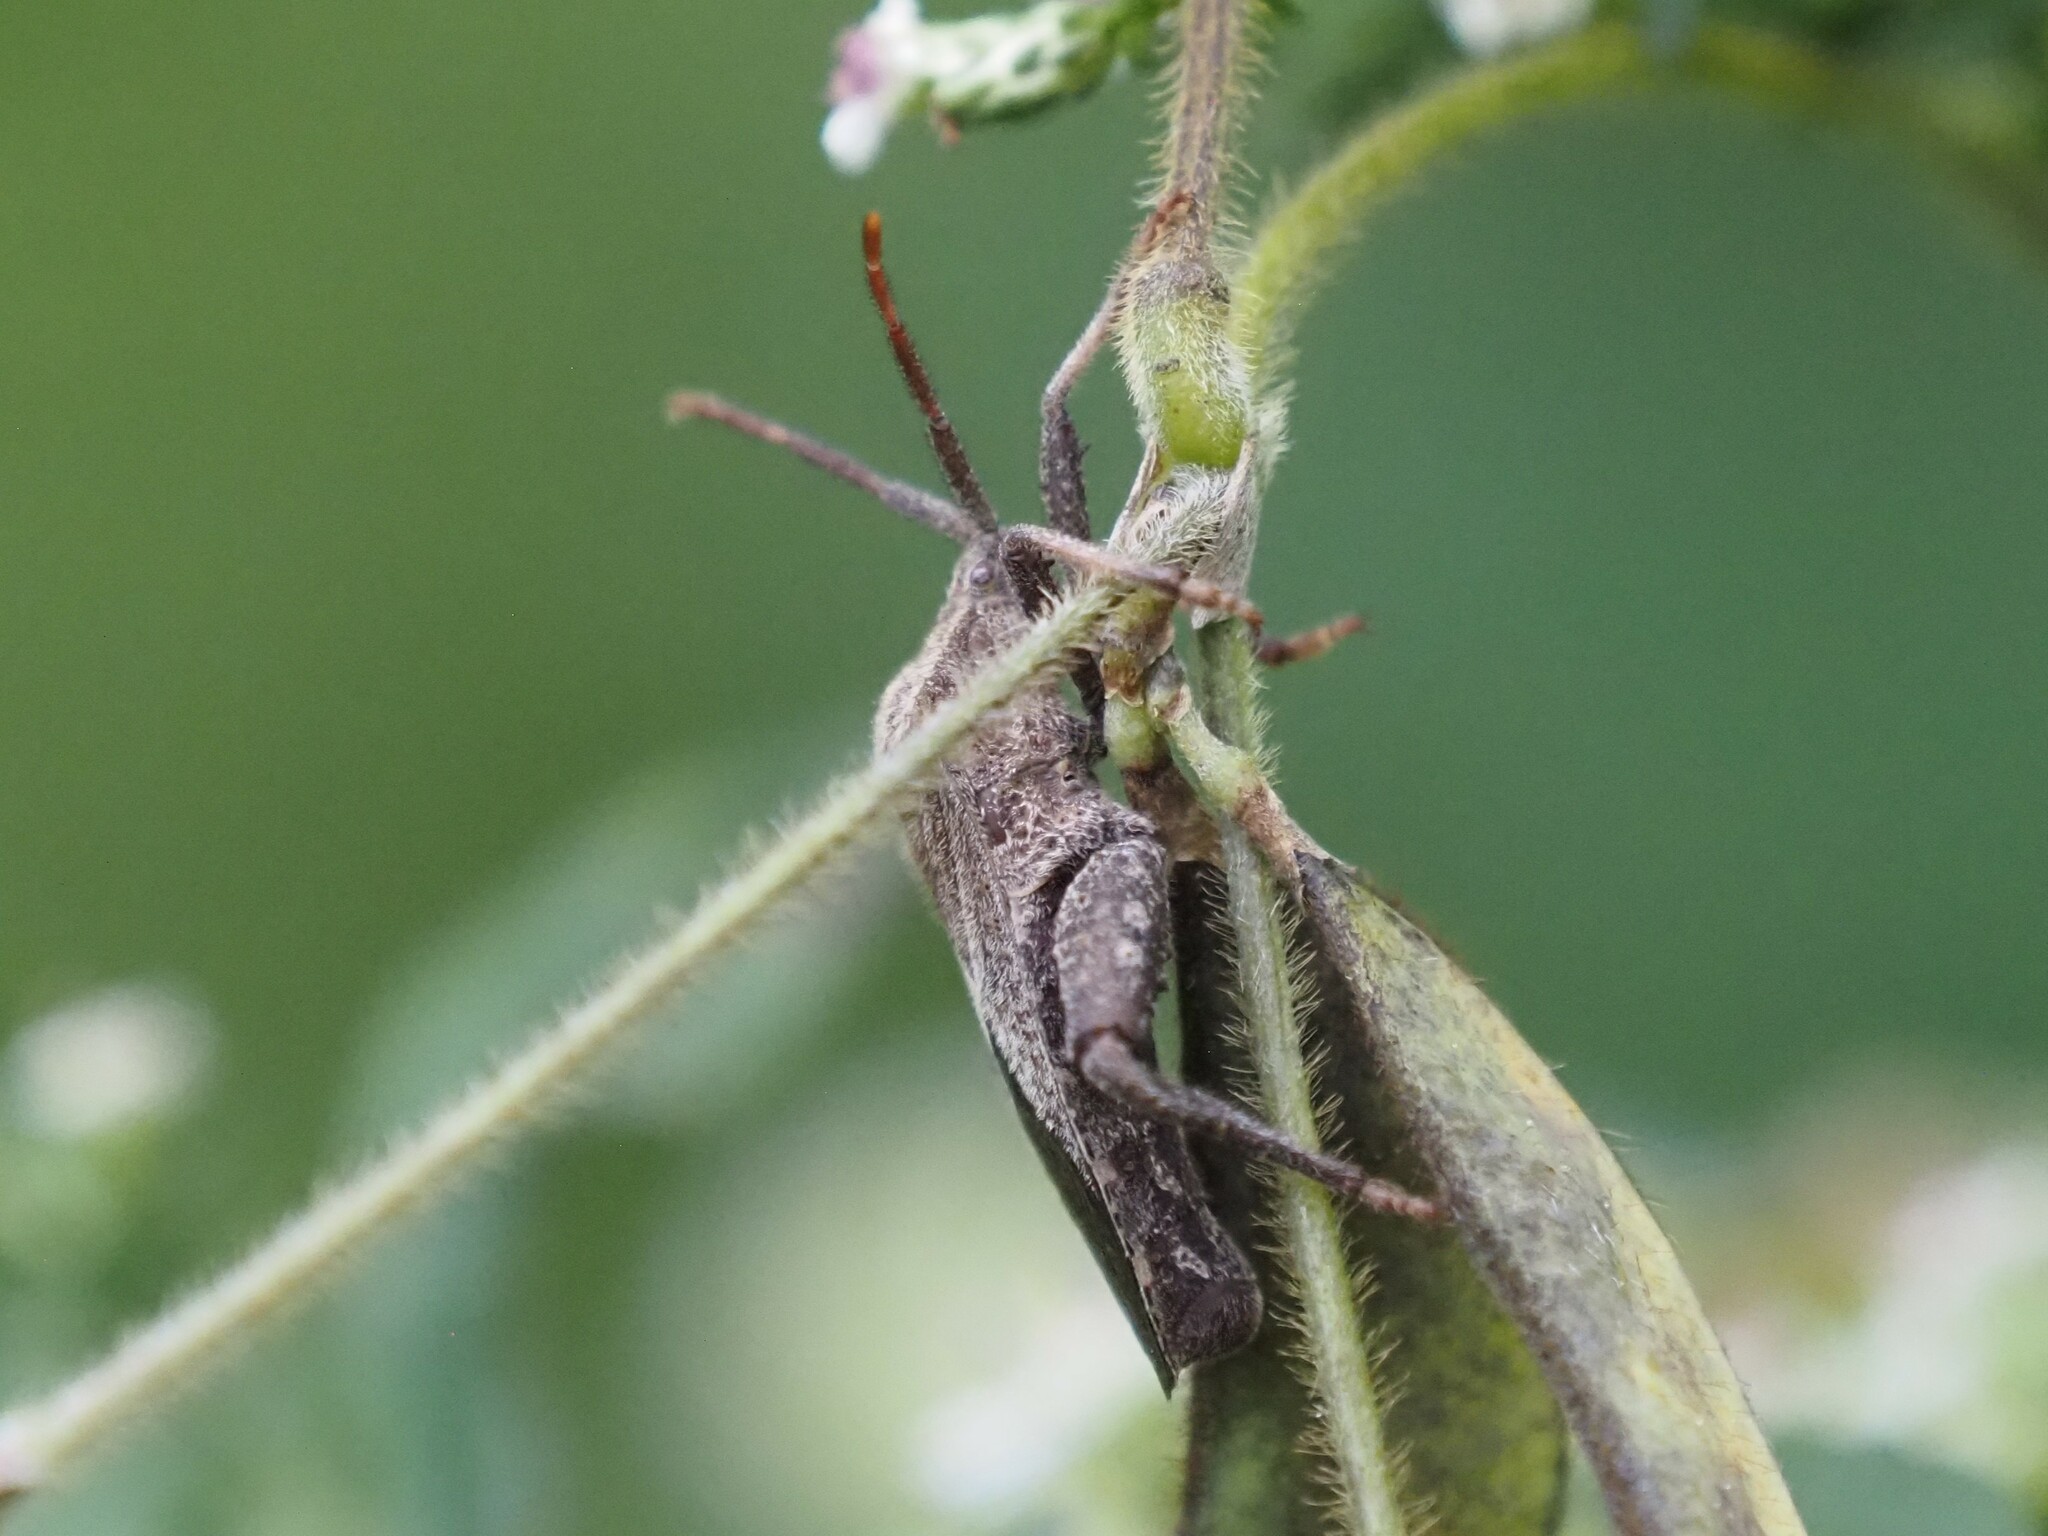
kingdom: Animalia
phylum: Arthropoda
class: Insecta
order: Hemiptera
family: Coreidae
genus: Piezogaster
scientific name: Piezogaster calcarator
